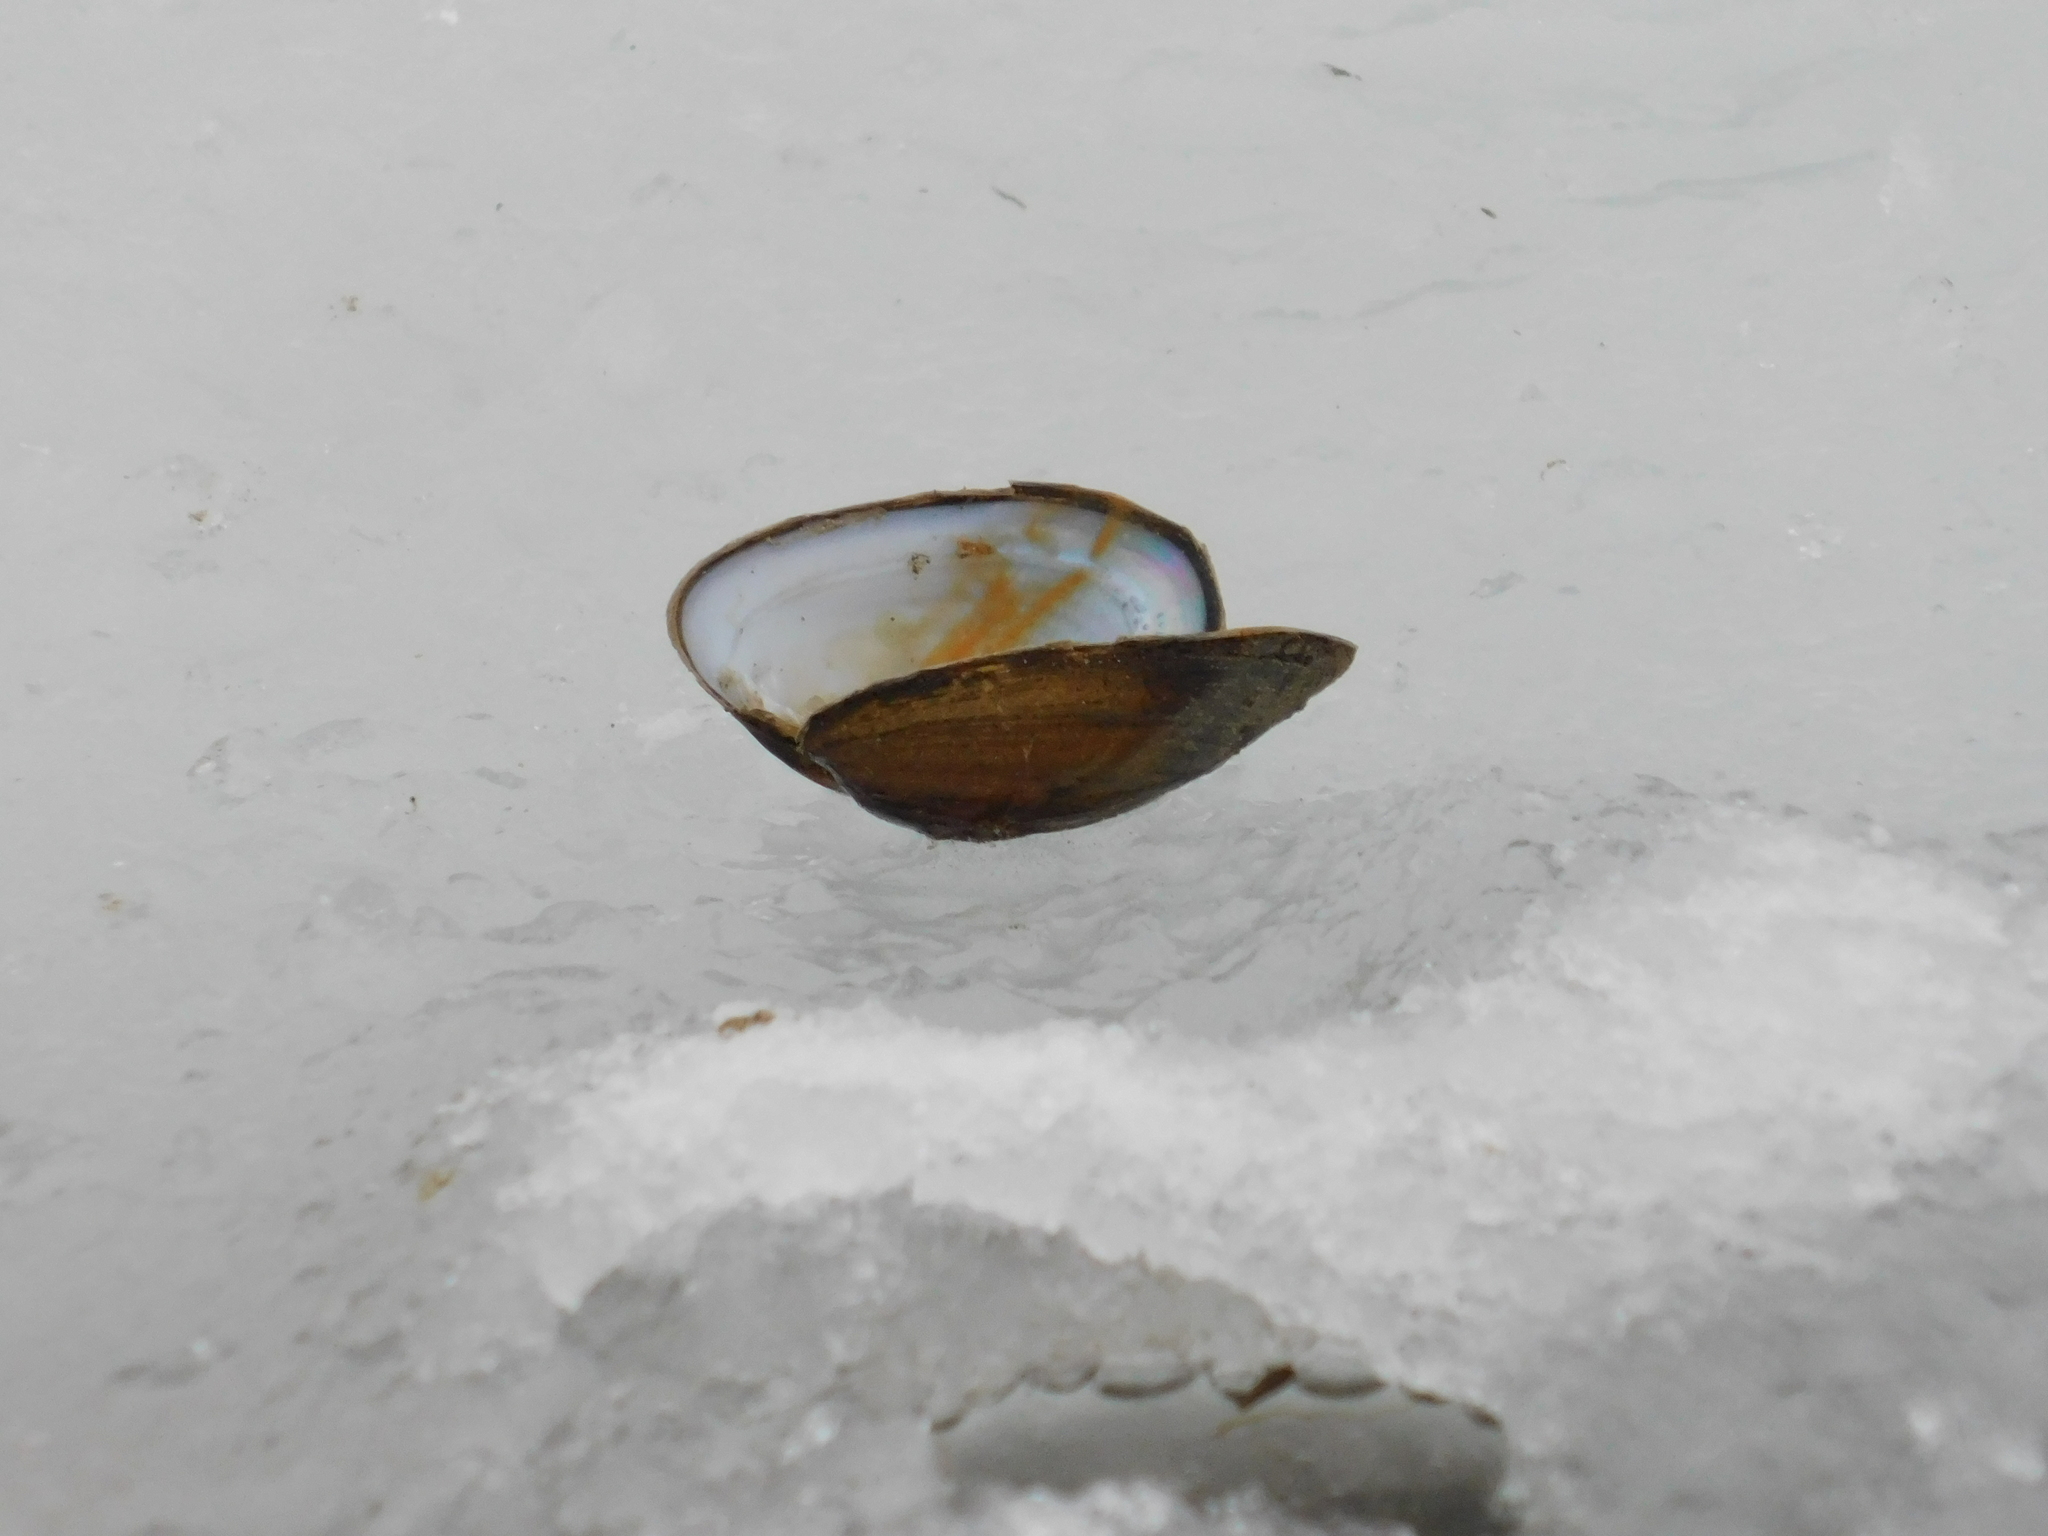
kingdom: Animalia
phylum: Mollusca
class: Bivalvia
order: Unionida
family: Unionidae
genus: Unio
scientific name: Unio crassus
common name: Thick shelled river mussel
